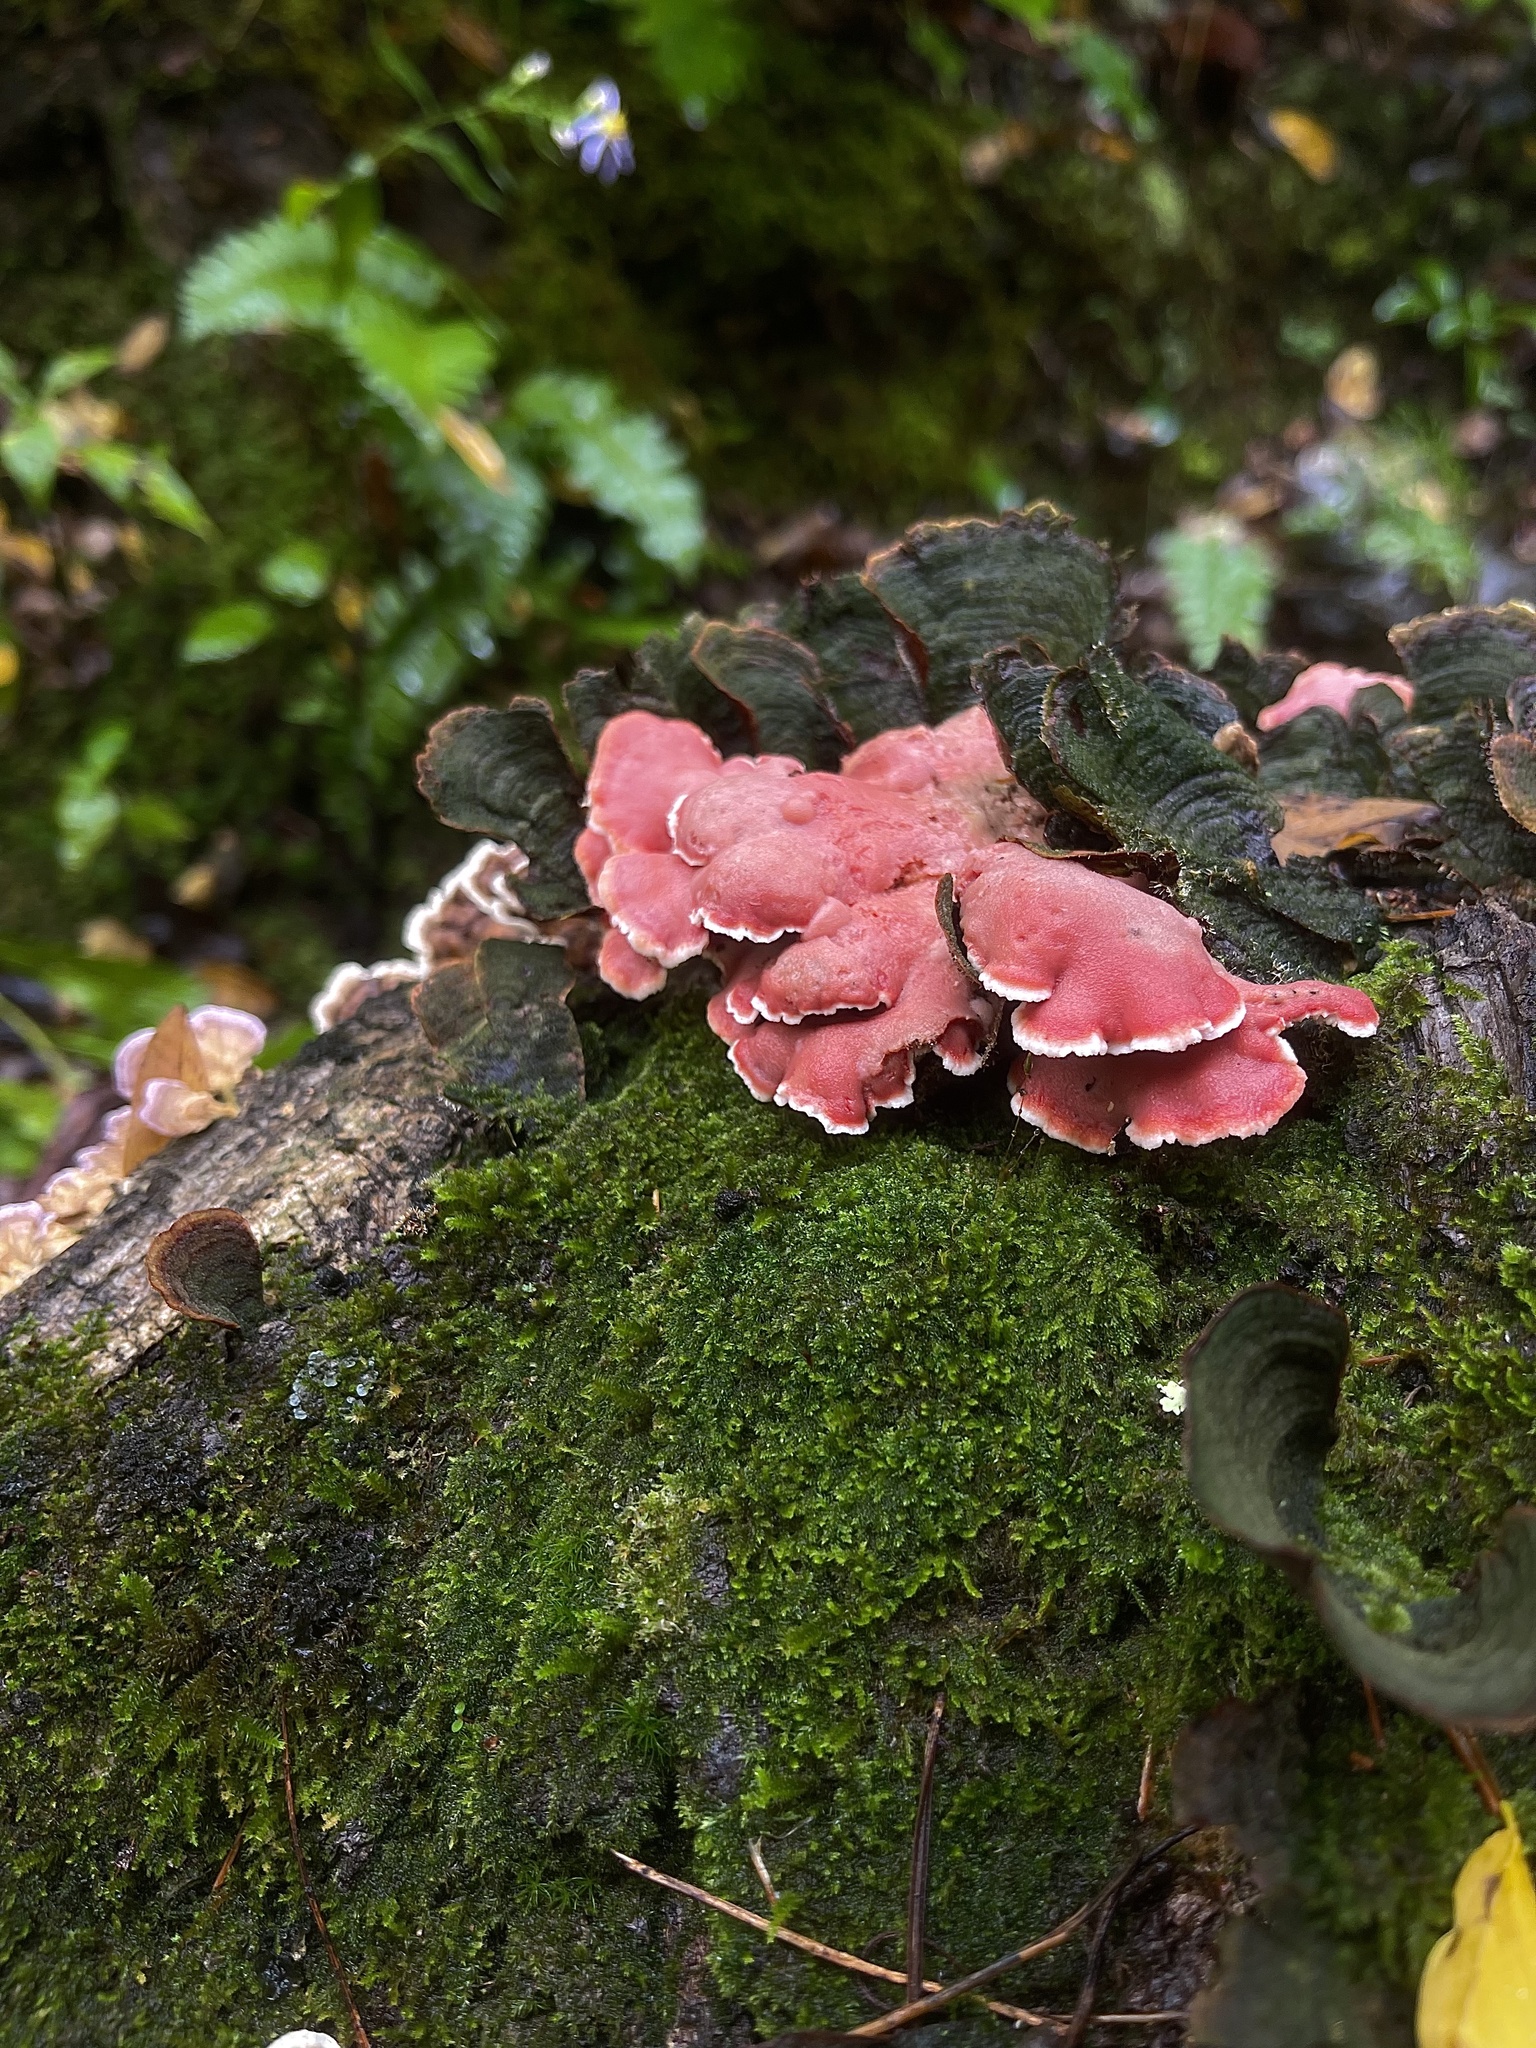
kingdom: Fungi
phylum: Basidiomycota
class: Agaricomycetes
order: Polyporales
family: Irpicaceae
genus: Byssomerulius
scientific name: Byssomerulius incarnatus
